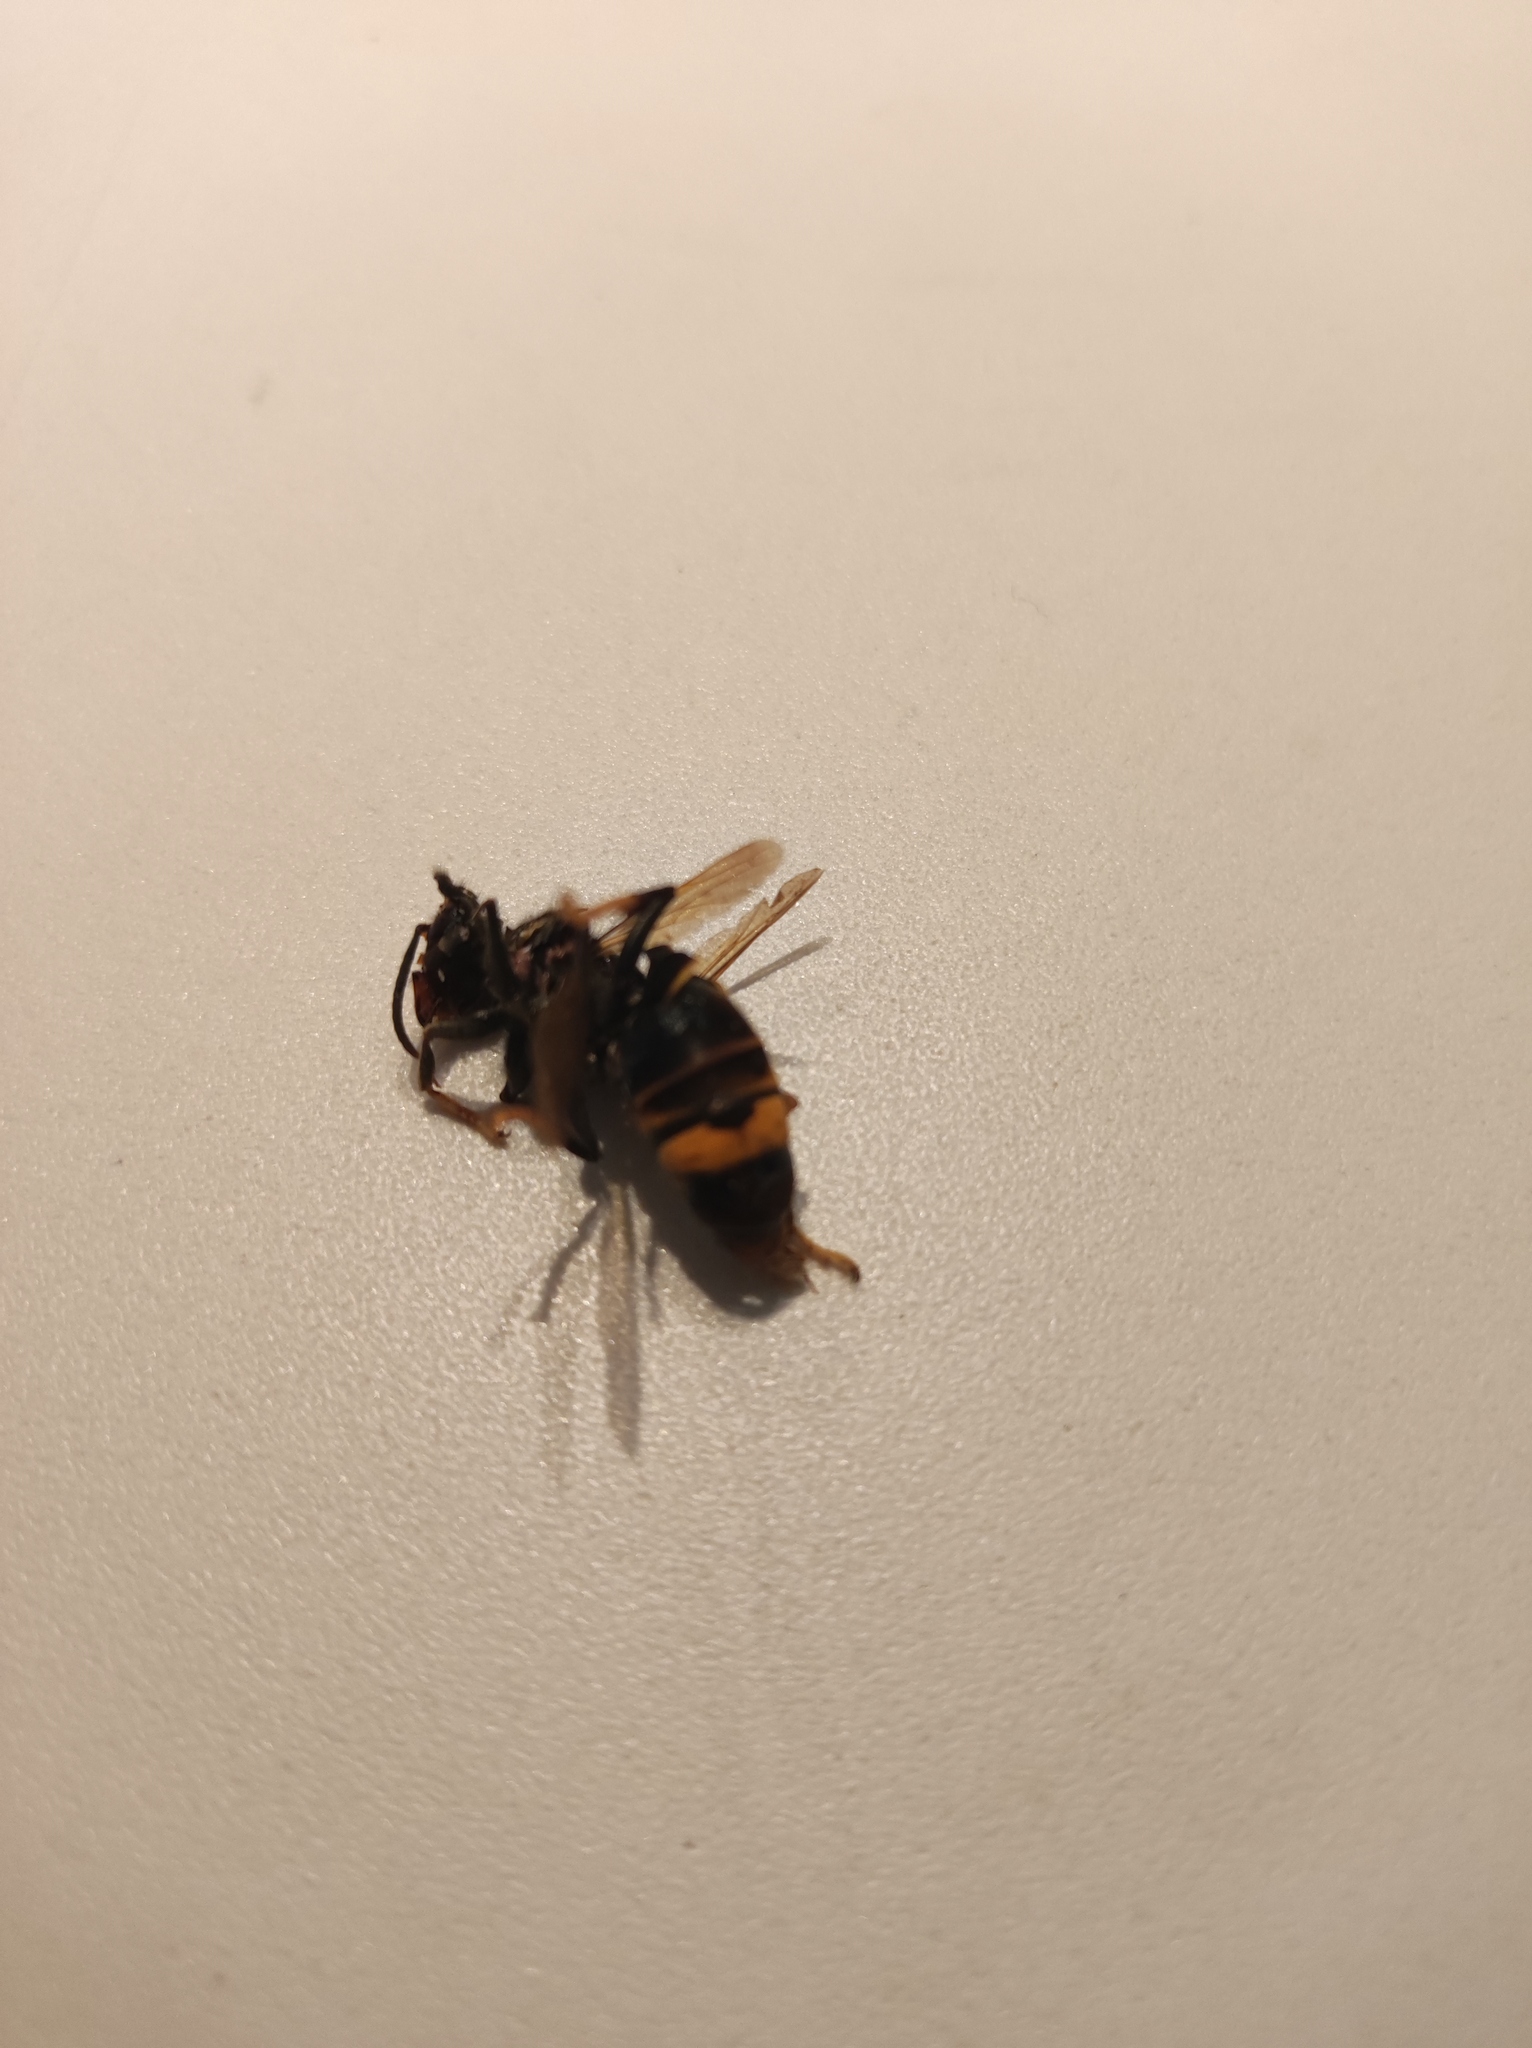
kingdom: Animalia
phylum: Arthropoda
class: Insecta
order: Hymenoptera
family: Vespidae
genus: Vespa
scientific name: Vespa velutina
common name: Asian hornet
